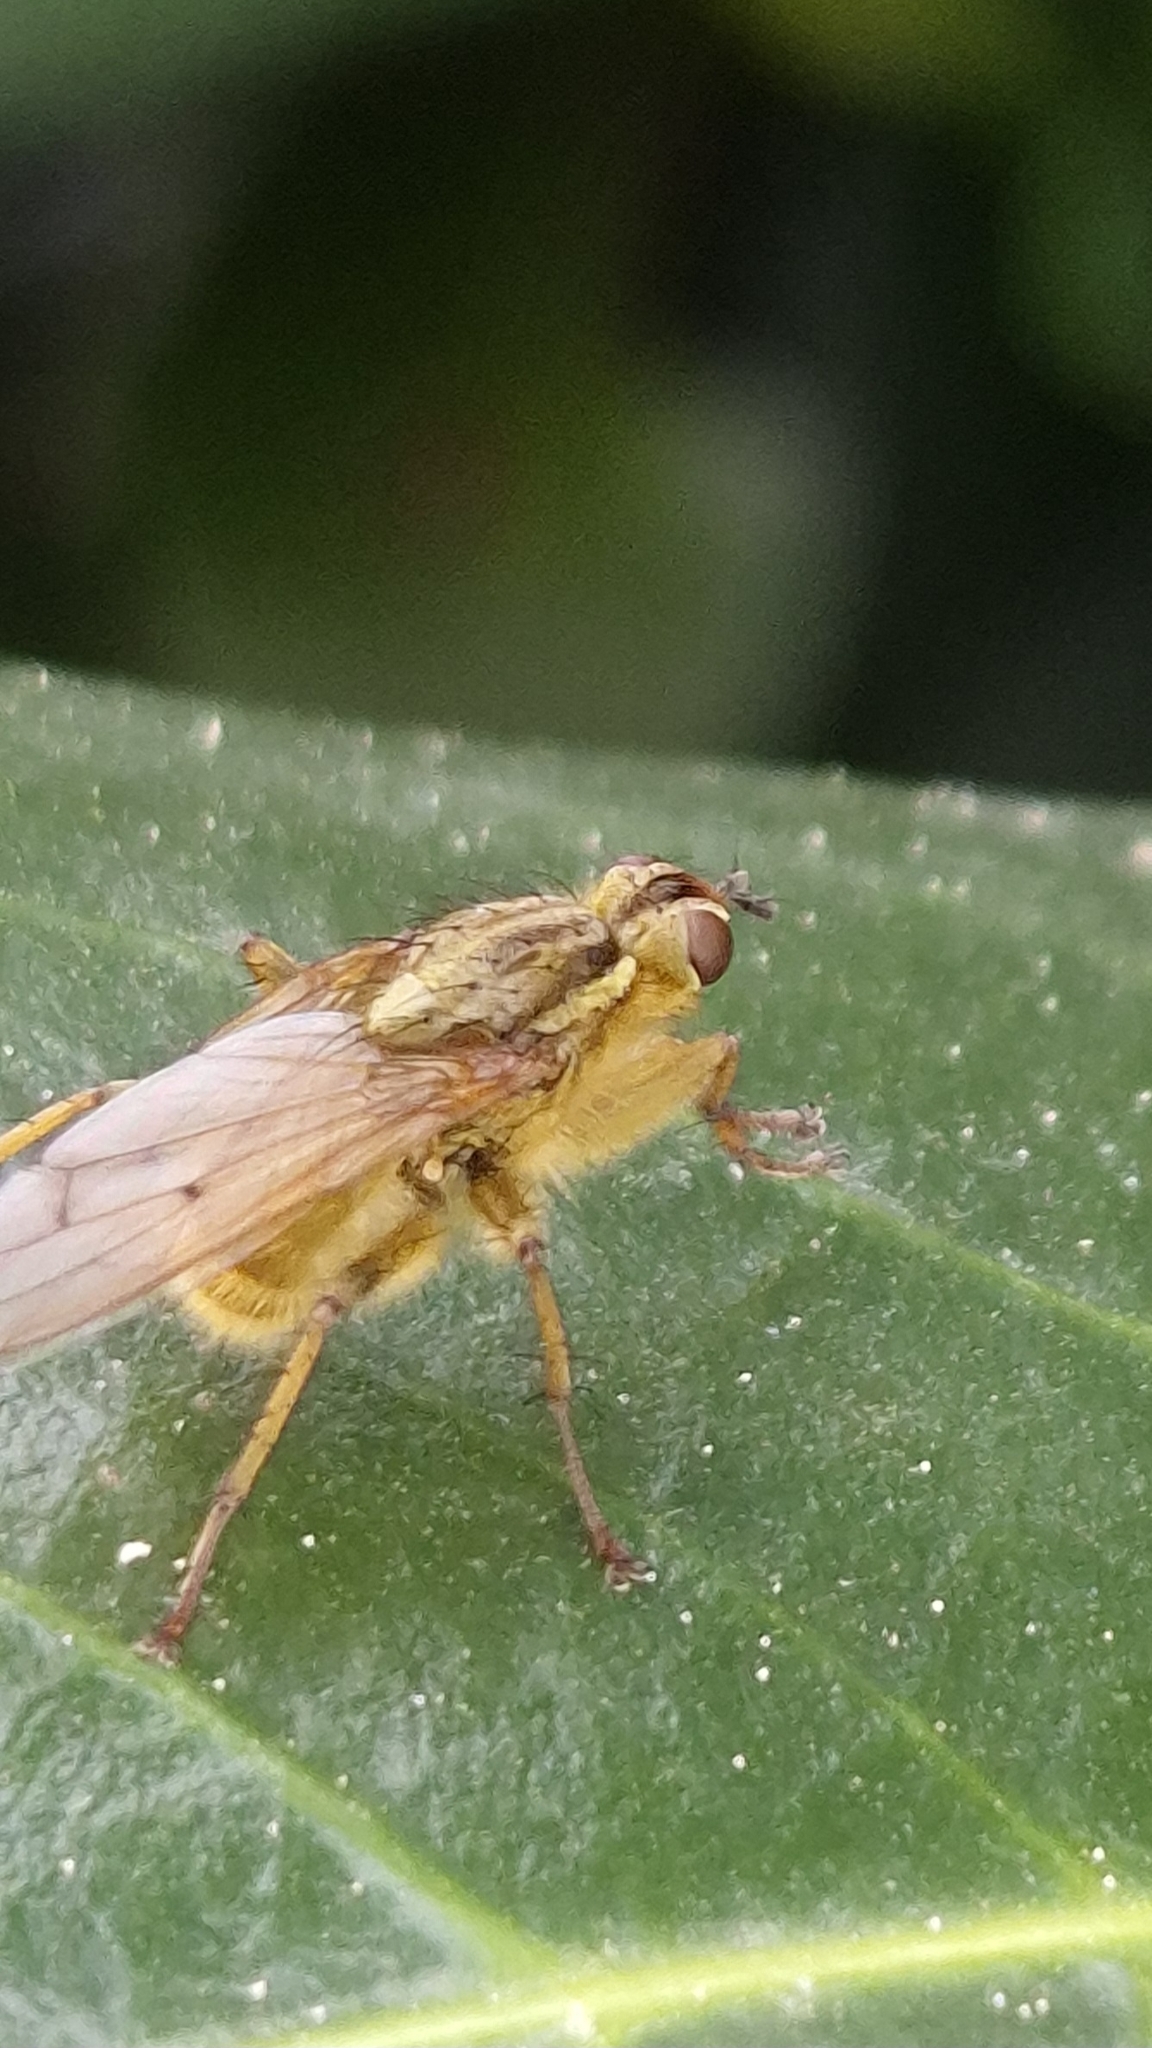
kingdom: Animalia
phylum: Arthropoda
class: Insecta
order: Diptera
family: Scathophagidae
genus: Scathophaga
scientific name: Scathophaga stercoraria
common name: Yellow dung fly
